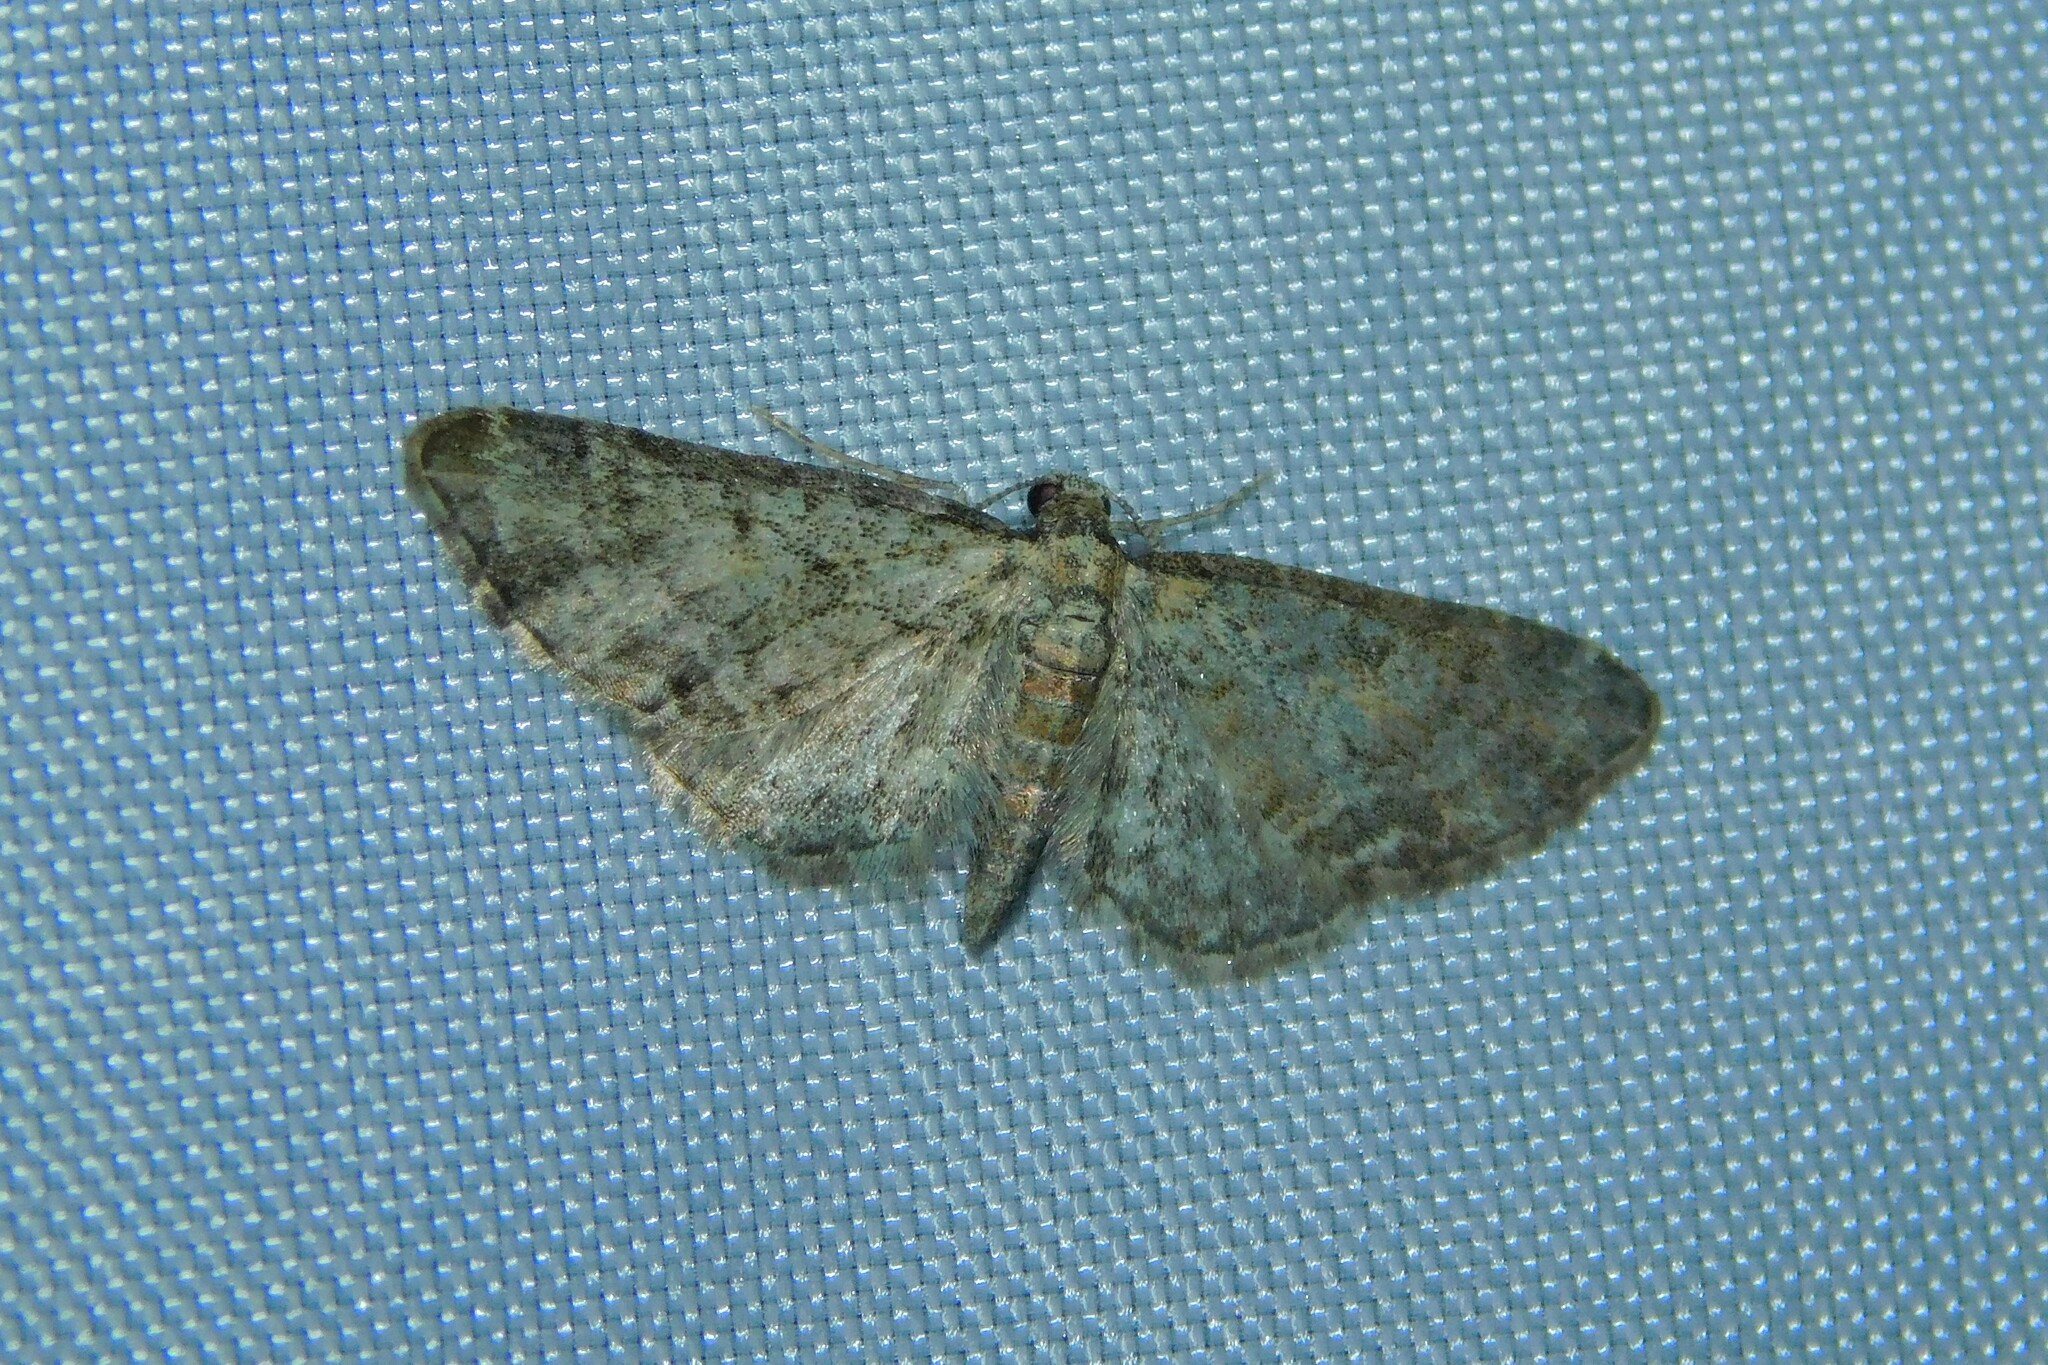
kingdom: Animalia
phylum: Arthropoda
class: Insecta
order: Lepidoptera
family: Geometridae
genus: Eupithecia
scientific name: Eupithecia inturbata
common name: Maple pug
